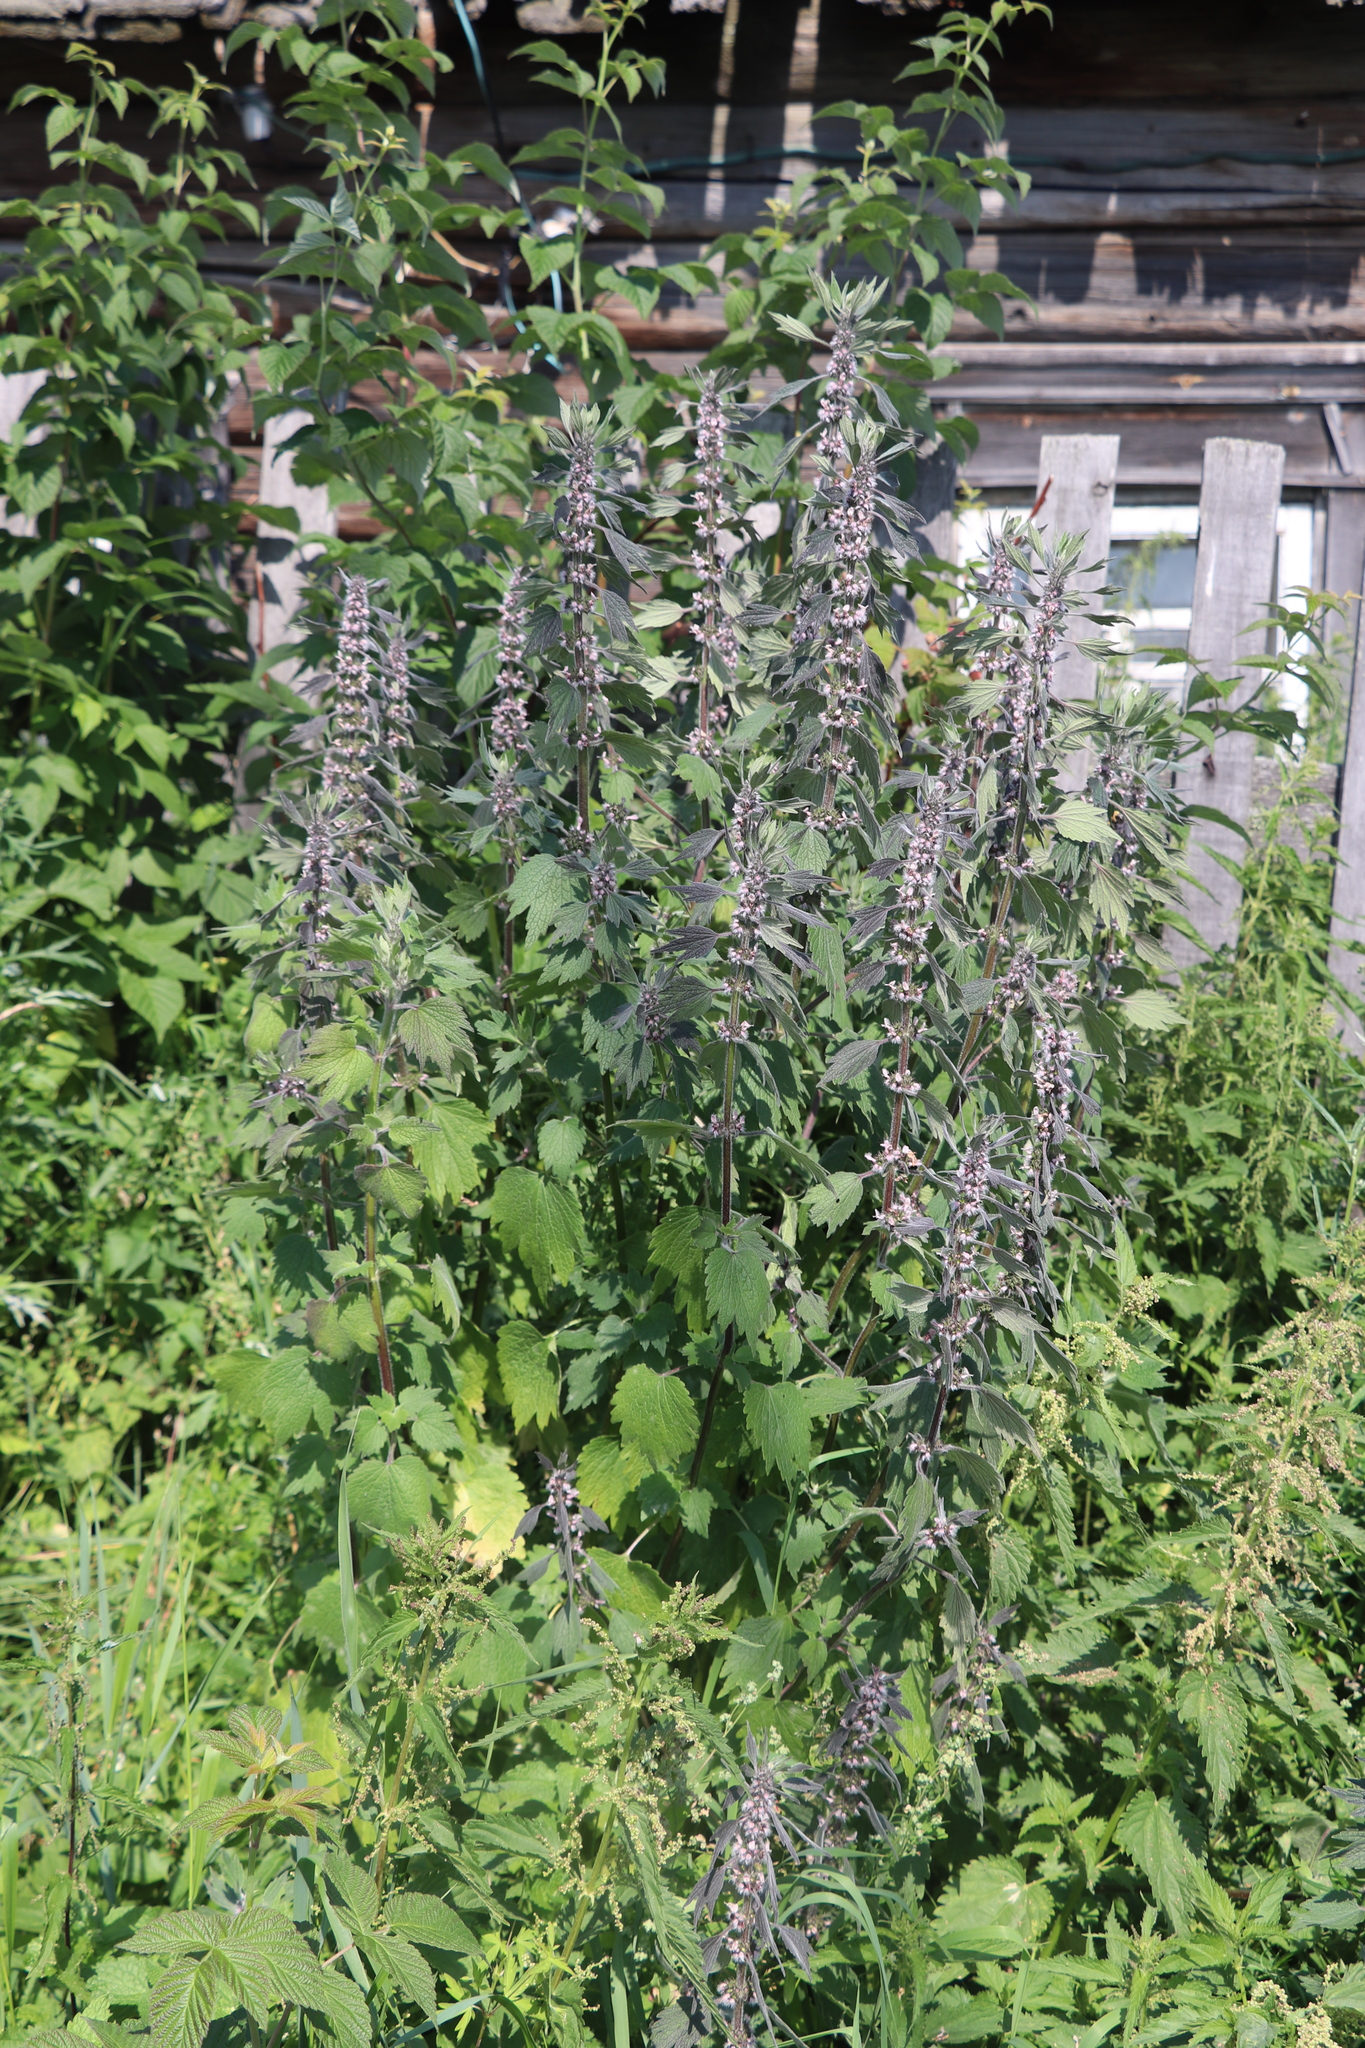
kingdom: Plantae
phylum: Tracheophyta
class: Magnoliopsida
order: Lamiales
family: Lamiaceae
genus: Leonurus
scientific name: Leonurus quinquelobatus
